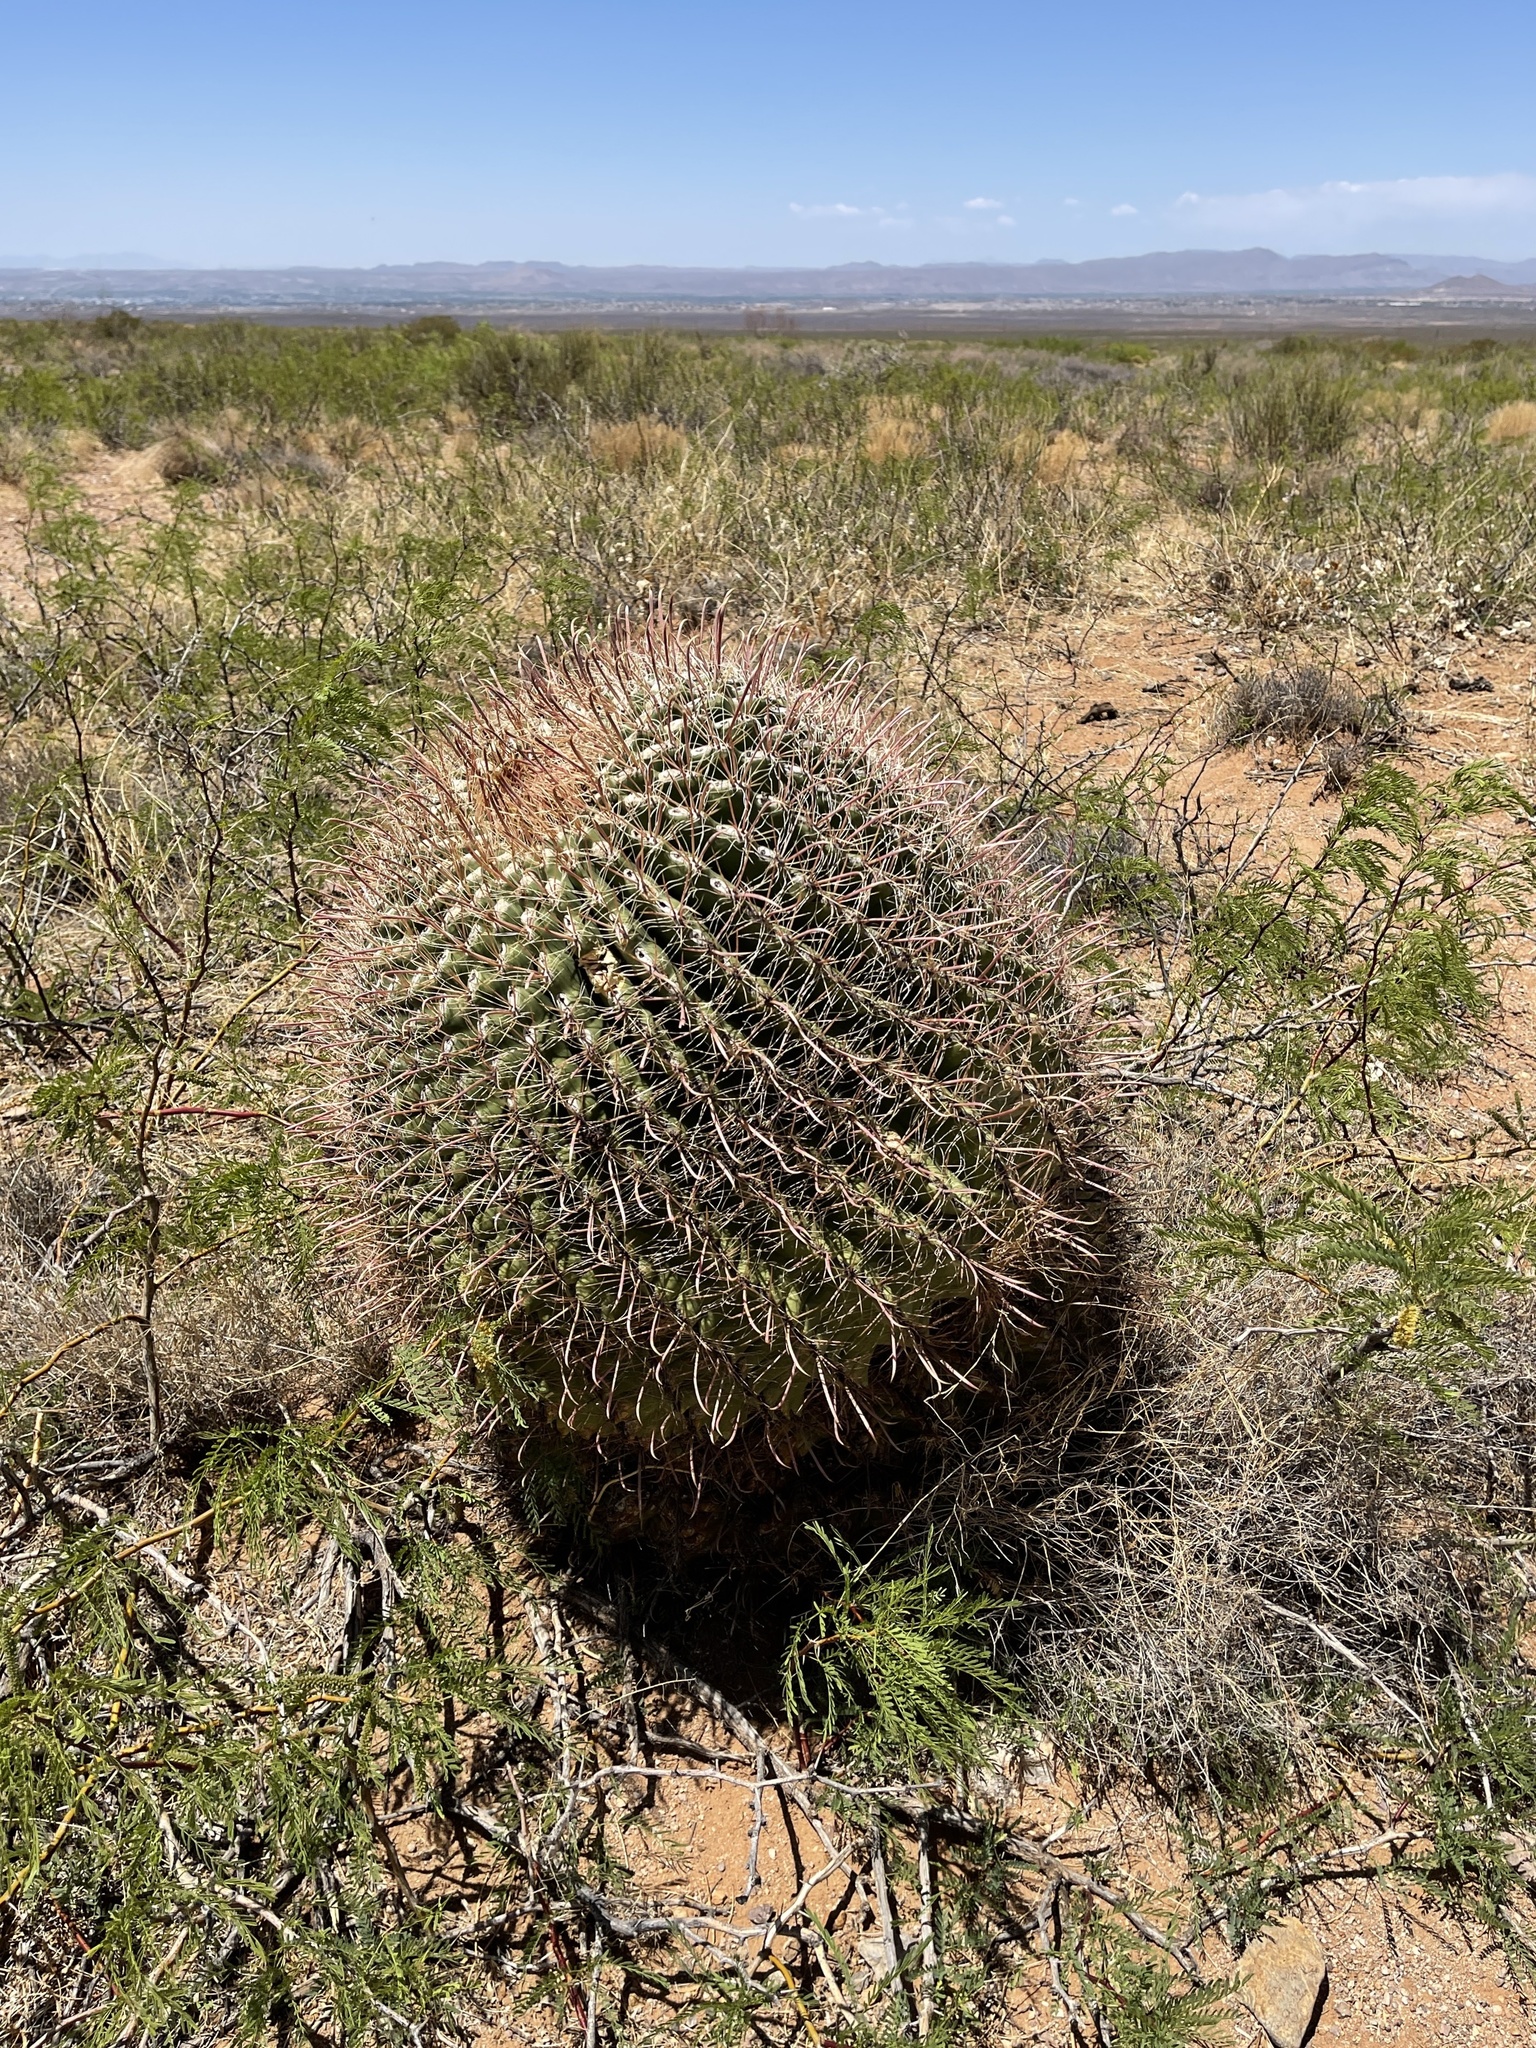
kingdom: Plantae
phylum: Tracheophyta
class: Magnoliopsida
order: Caryophyllales
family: Cactaceae
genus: Ferocactus
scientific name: Ferocactus wislizeni
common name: Candy barrel cactus
